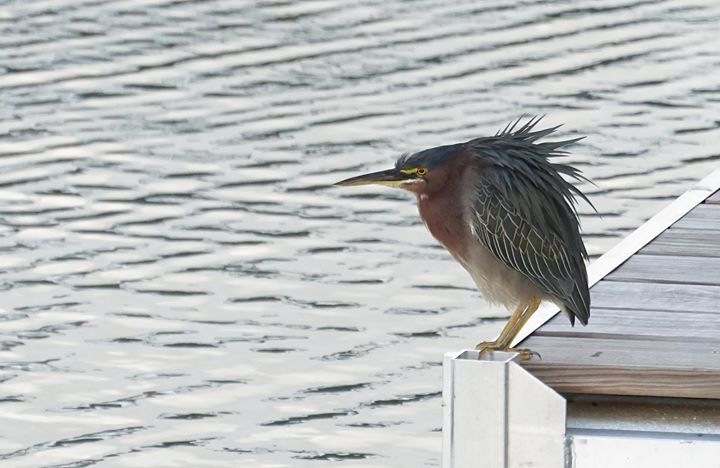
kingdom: Animalia
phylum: Chordata
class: Aves
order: Pelecaniformes
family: Ardeidae
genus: Butorides
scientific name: Butorides virescens
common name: Green heron
